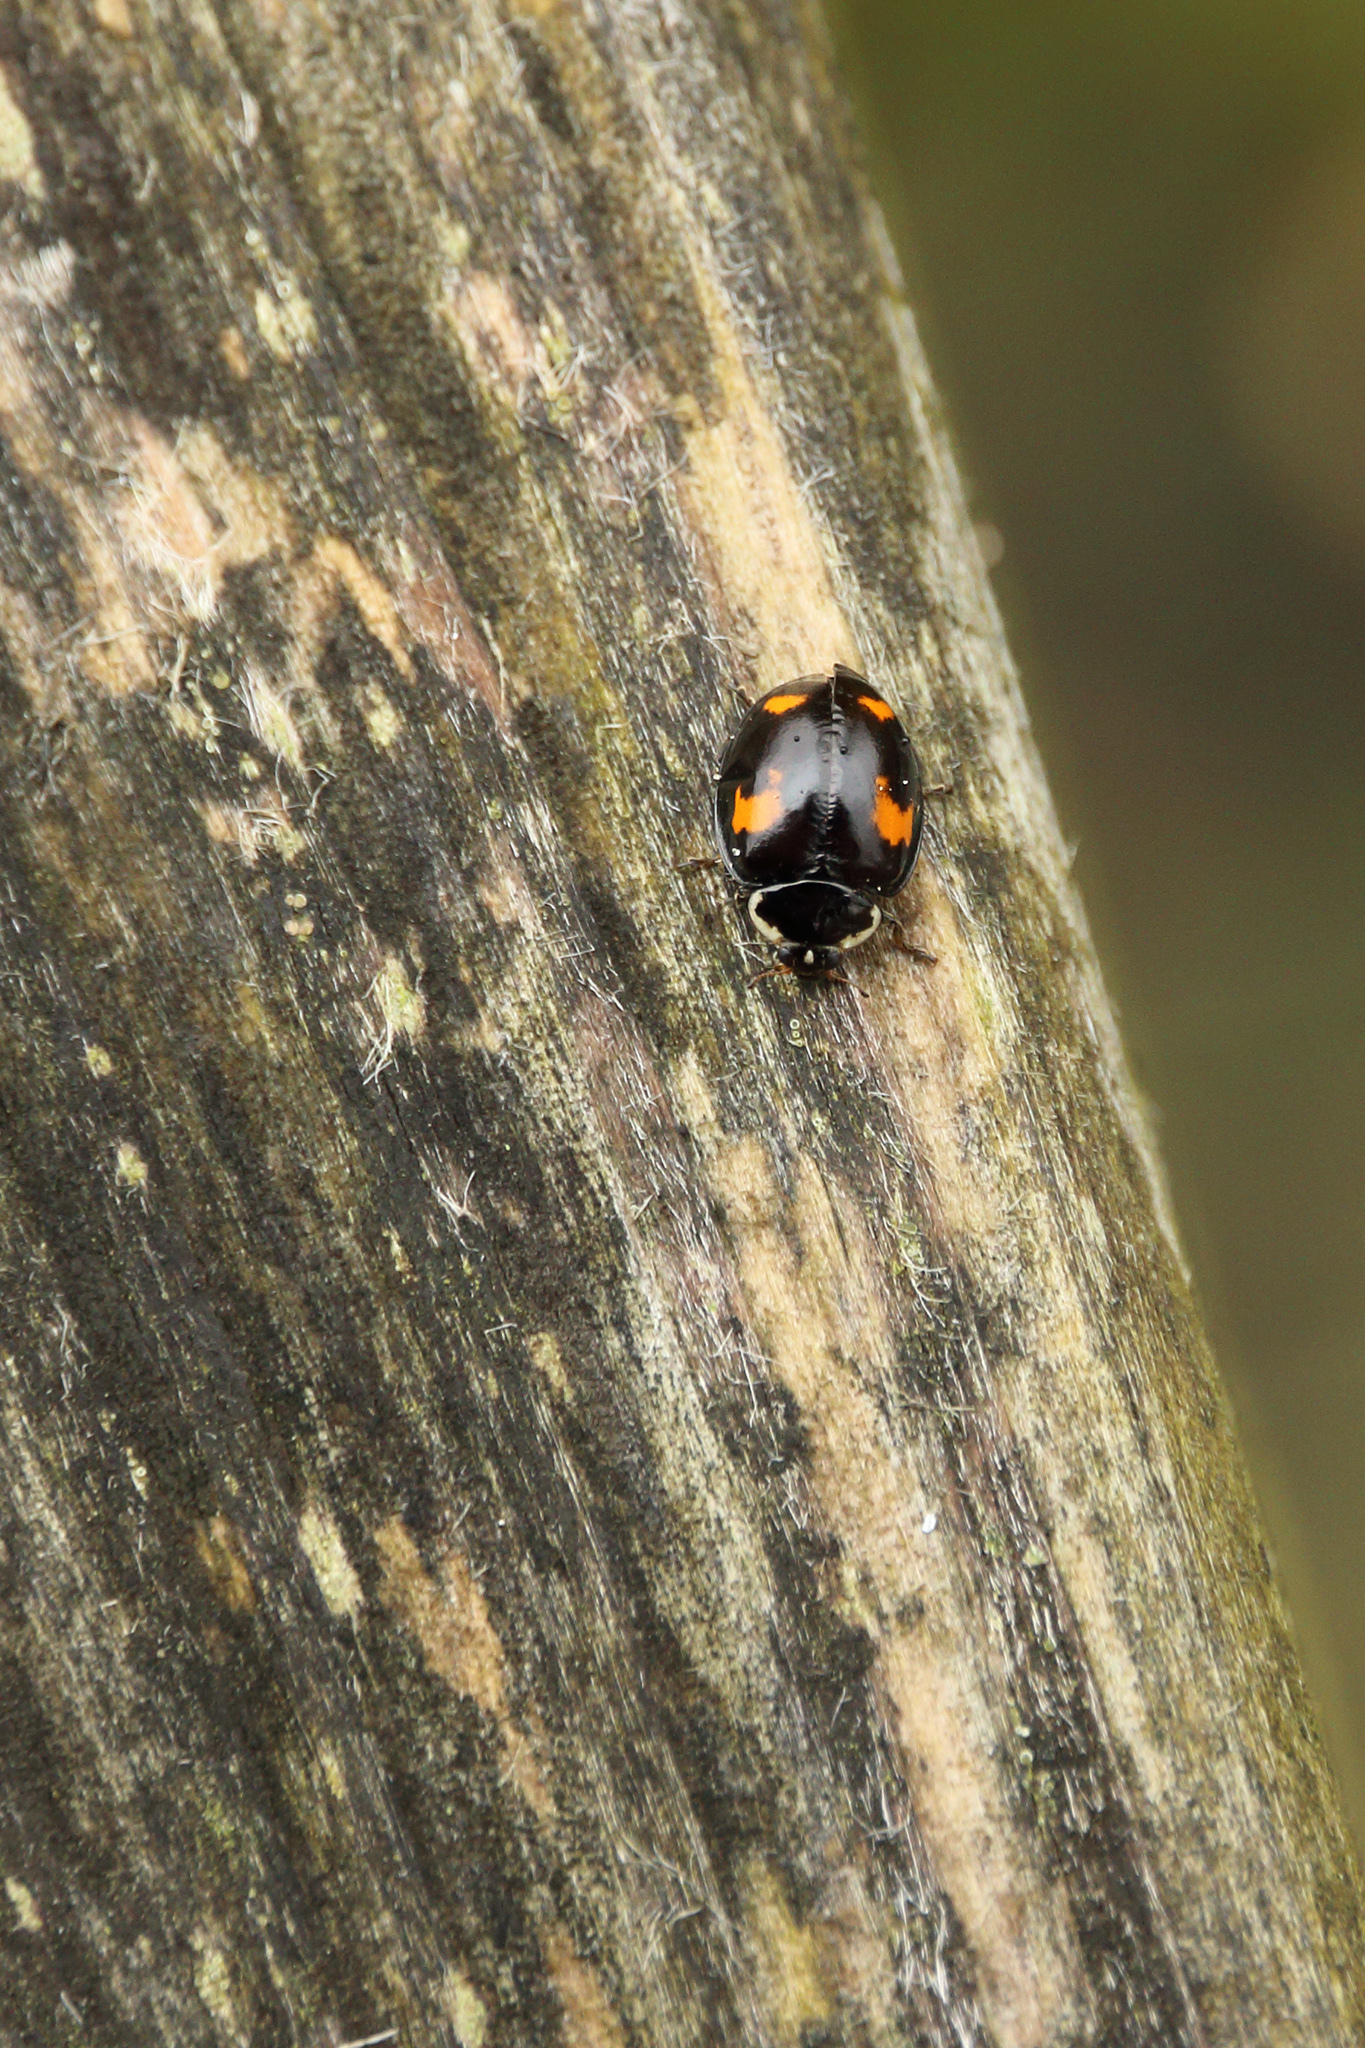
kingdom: Animalia
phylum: Arthropoda
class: Insecta
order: Coleoptera
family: Coccinellidae
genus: Harmonia
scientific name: Harmonia axyridis
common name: Harlequin ladybird
